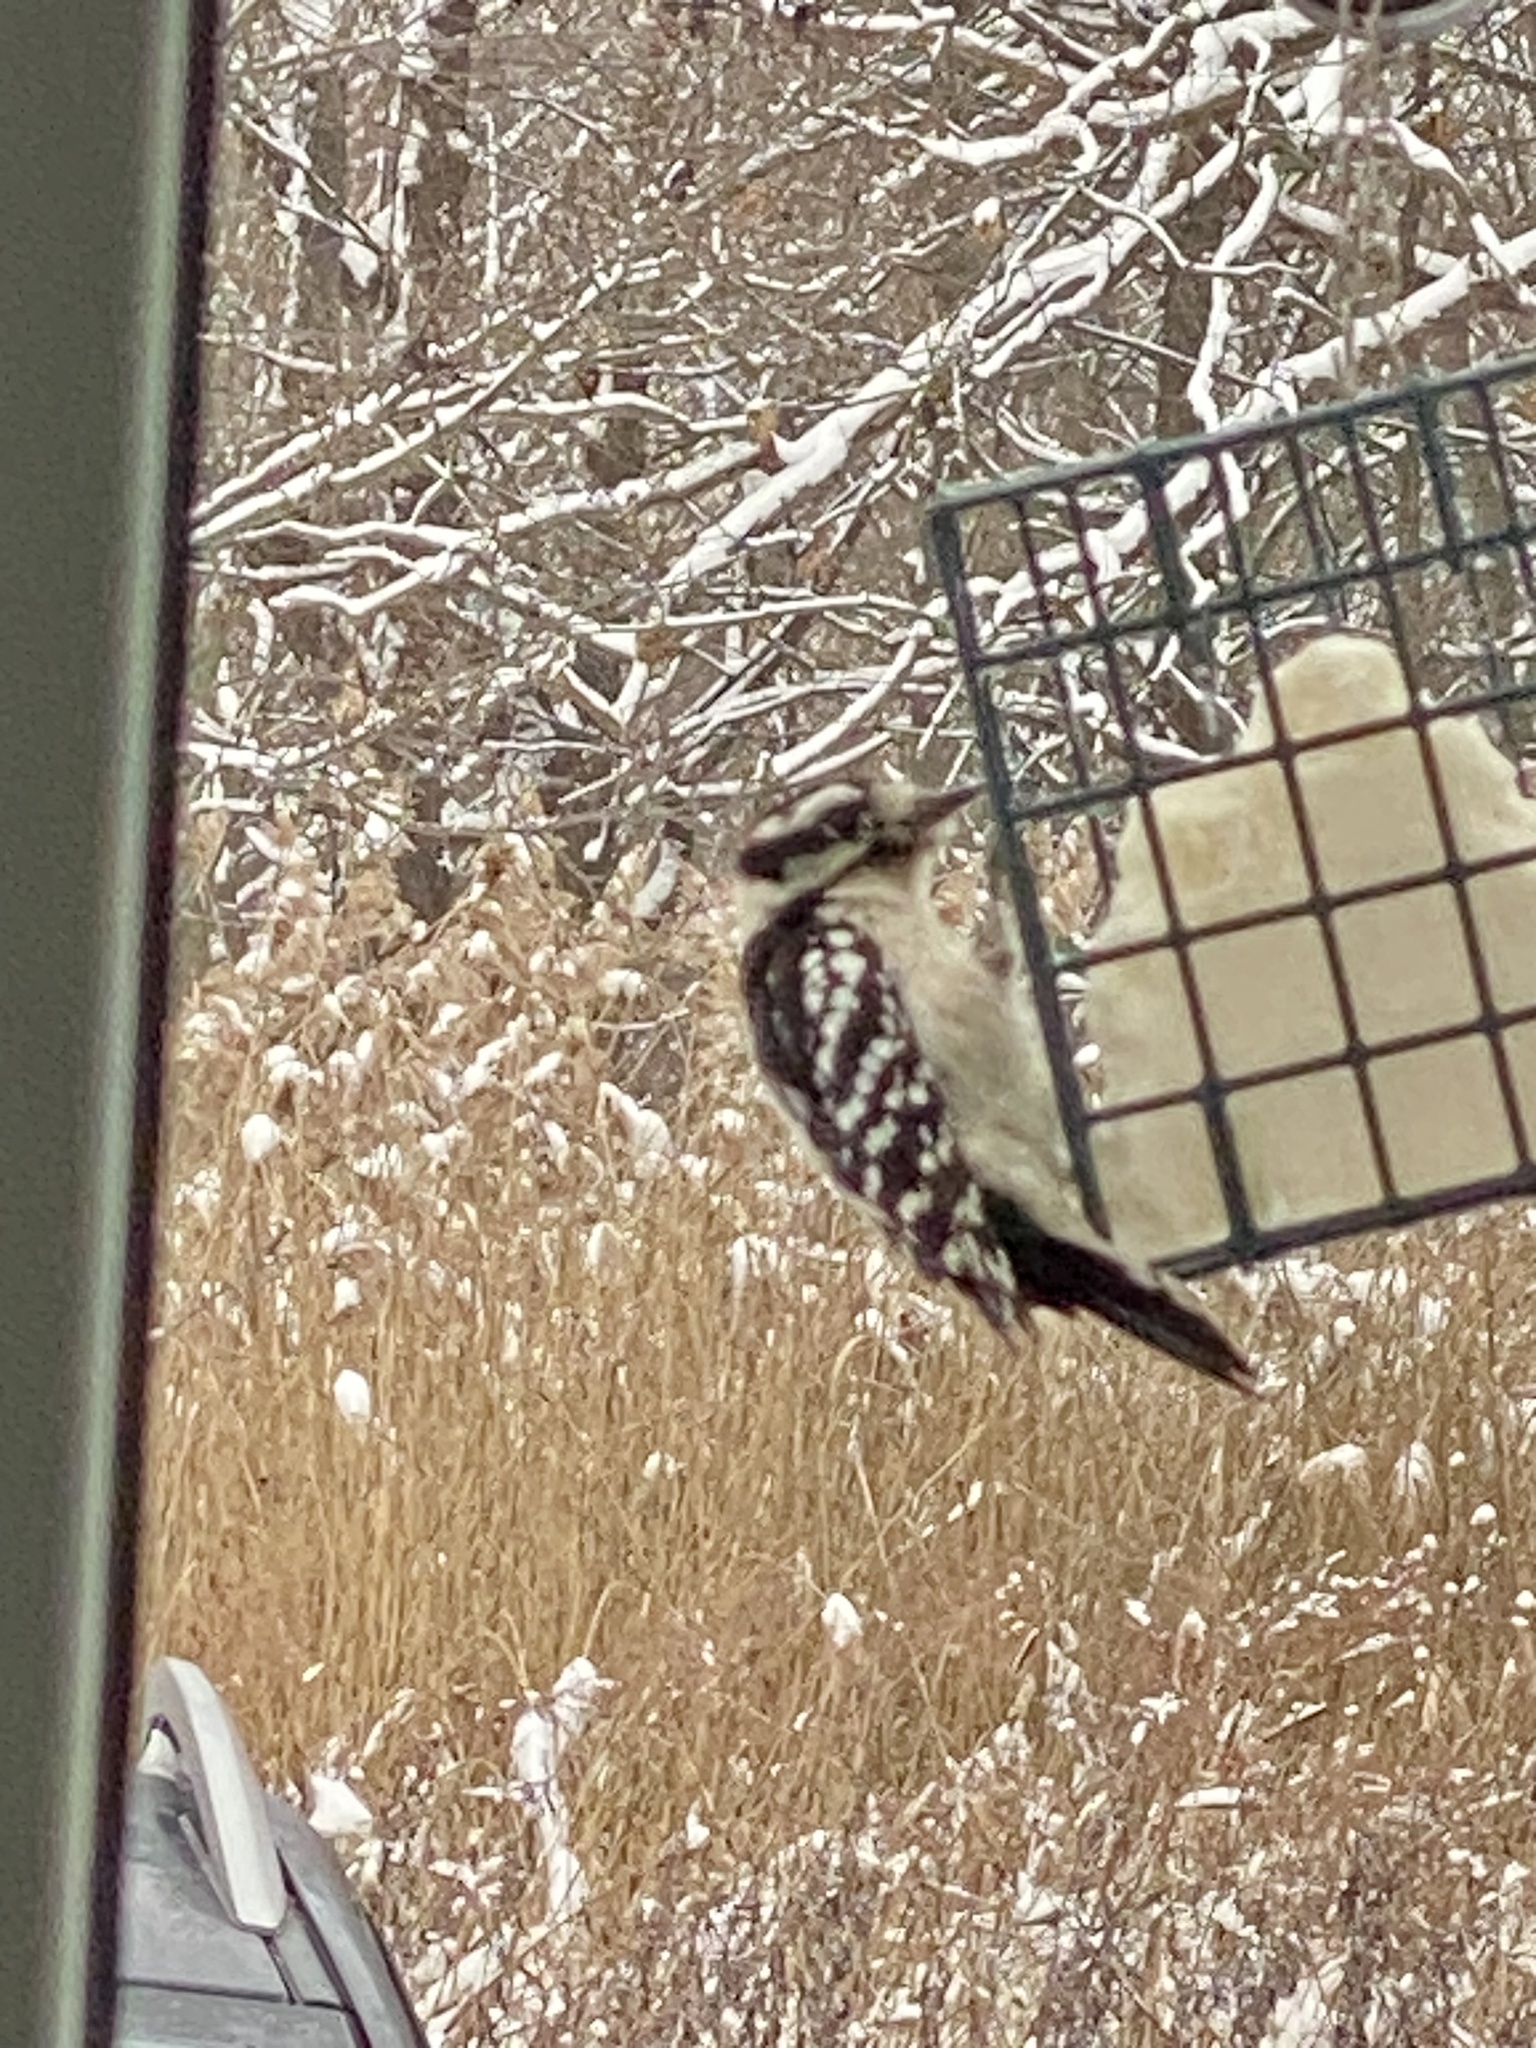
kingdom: Animalia
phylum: Chordata
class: Aves
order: Piciformes
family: Picidae
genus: Dryobates
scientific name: Dryobates pubescens
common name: Downy woodpecker
